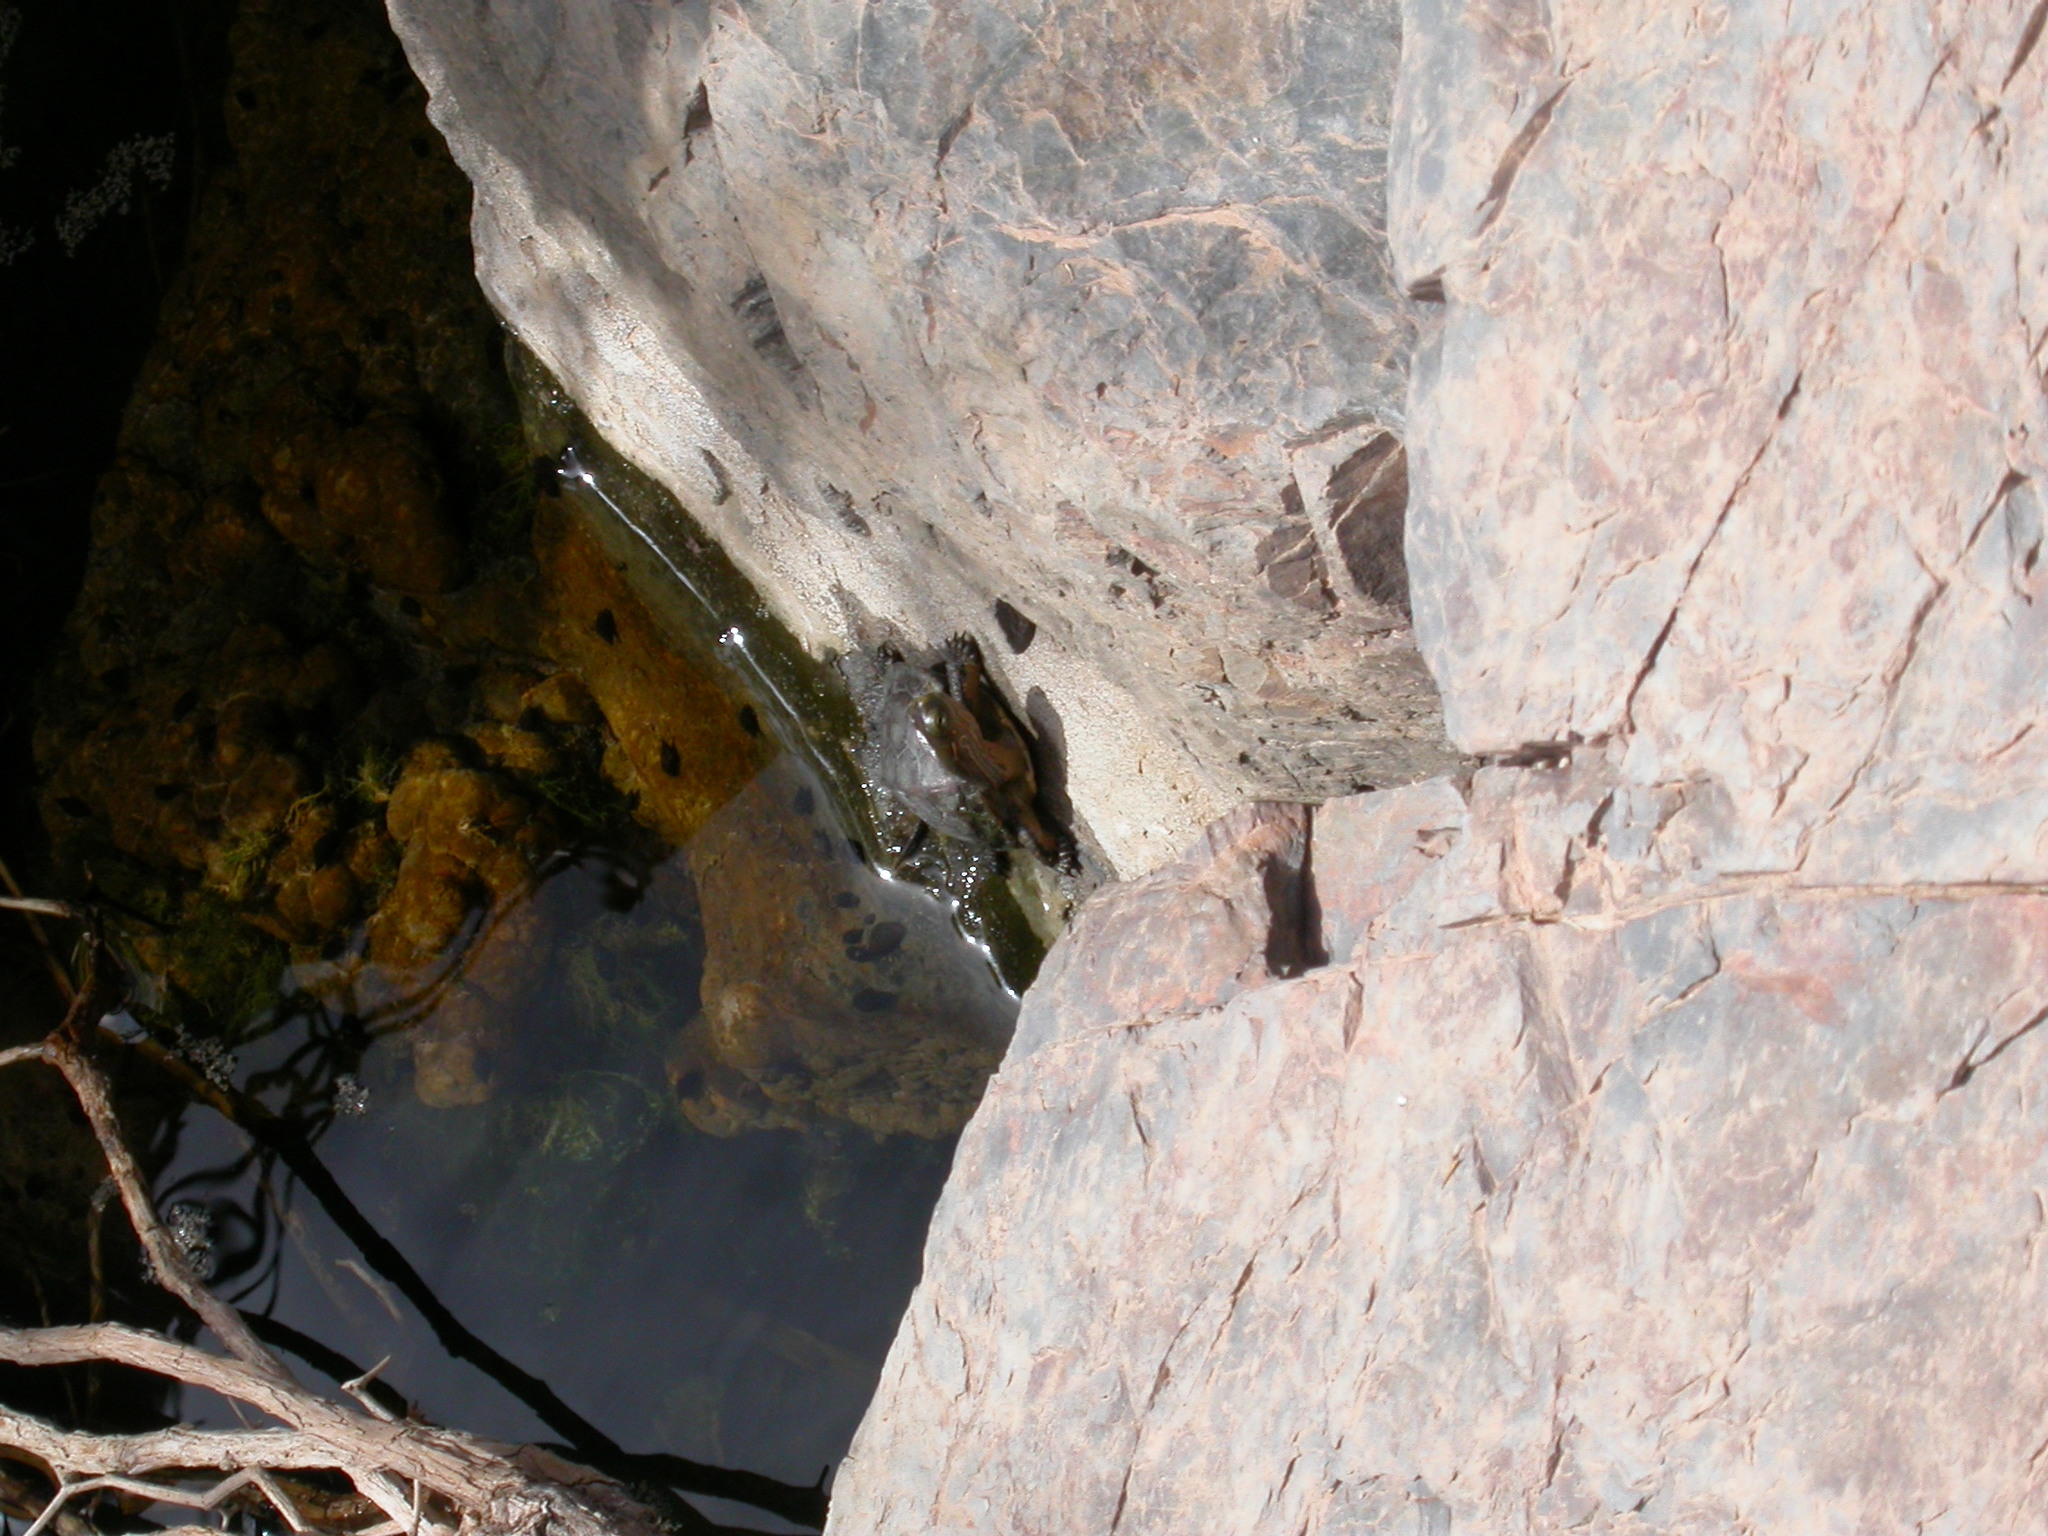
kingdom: Animalia
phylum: Chordata
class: Testudines
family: Geoemydidae
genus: Mauremys
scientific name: Mauremys leprosa
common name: Mediterranean pond turtle
